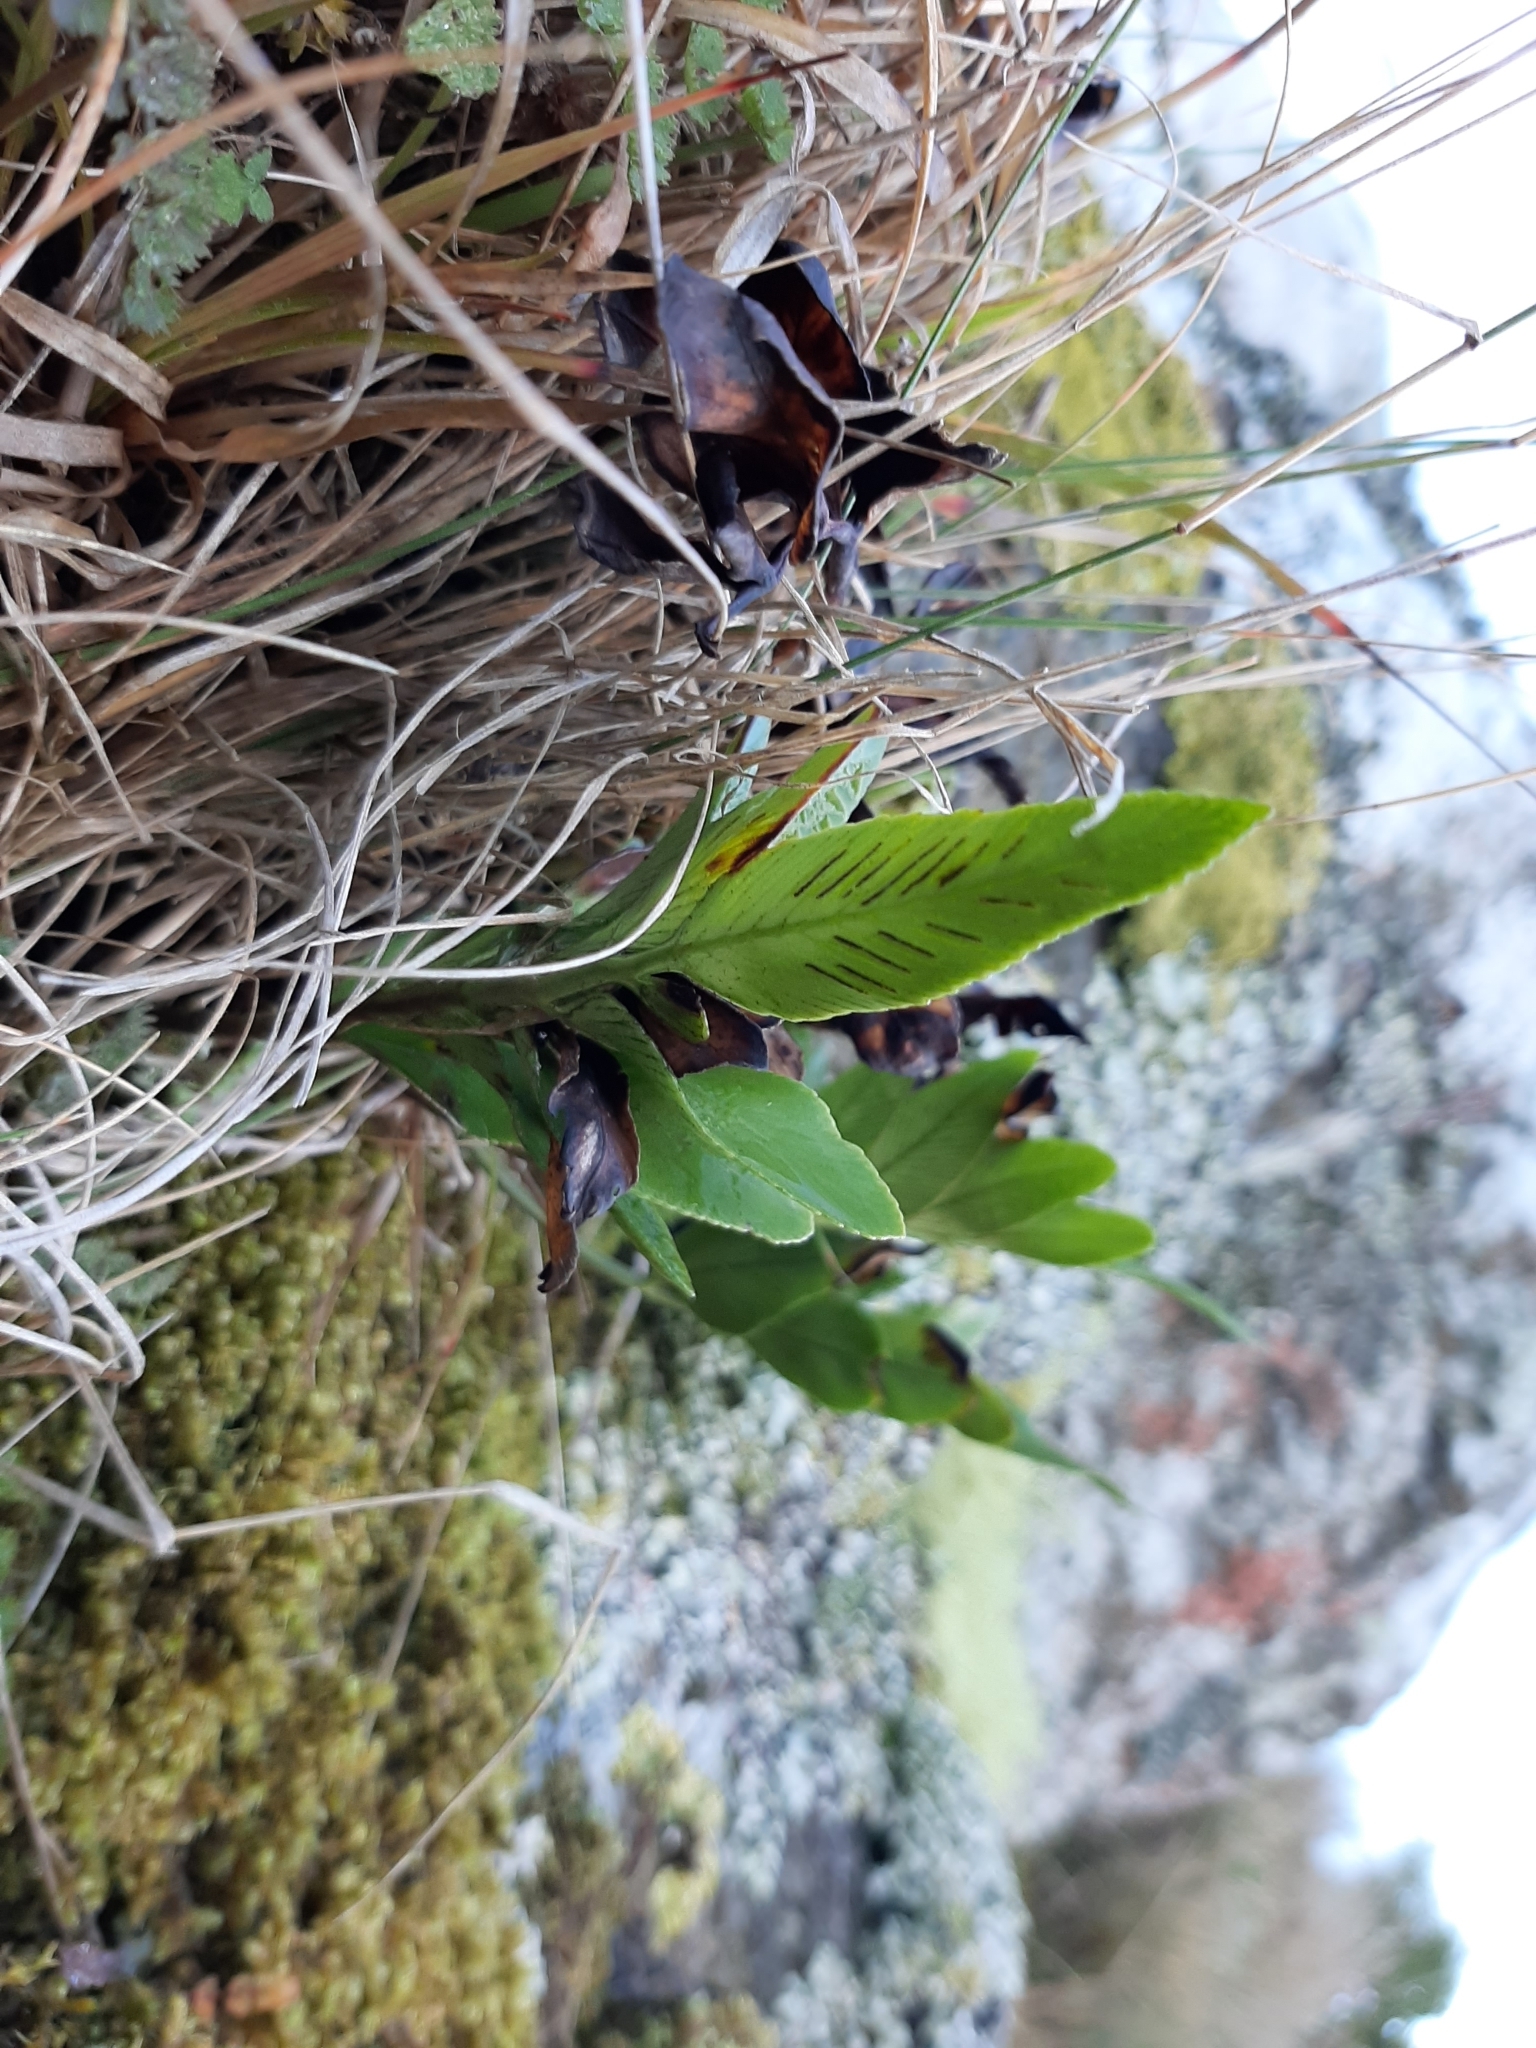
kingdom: Plantae
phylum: Tracheophyta
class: Polypodiopsida
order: Polypodiales
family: Aspleniaceae
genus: Asplenium
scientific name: Asplenium obtusatum
